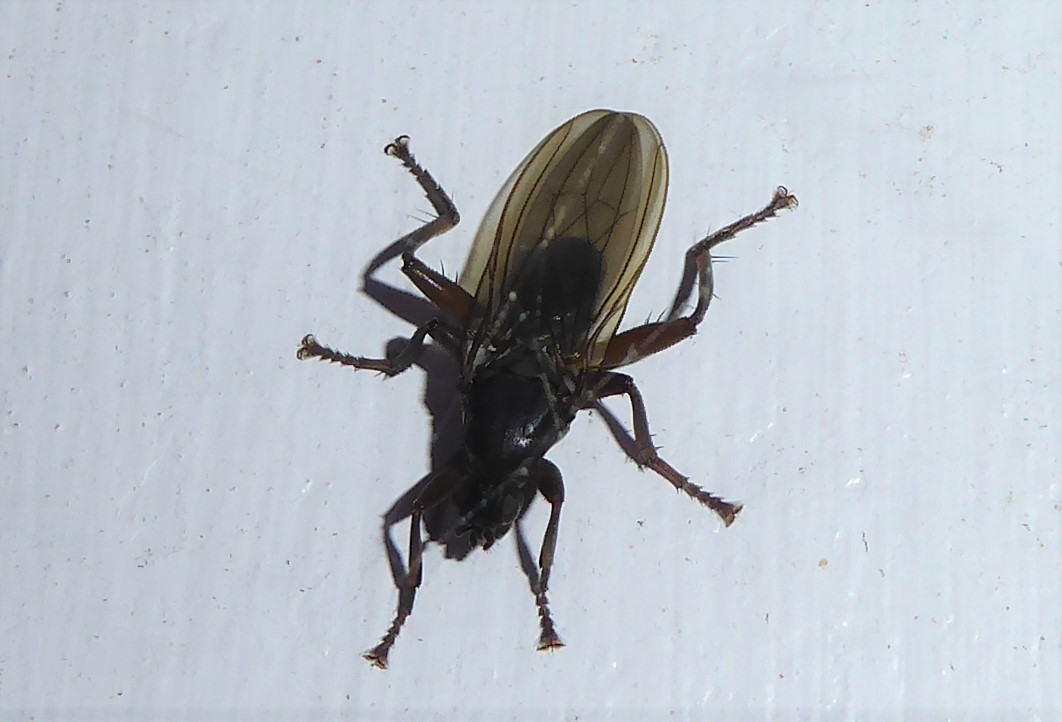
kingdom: Animalia
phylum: Arthropoda
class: Insecta
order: Diptera
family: Coelopidae
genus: Baeopterus
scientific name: Baeopterus philpotti
